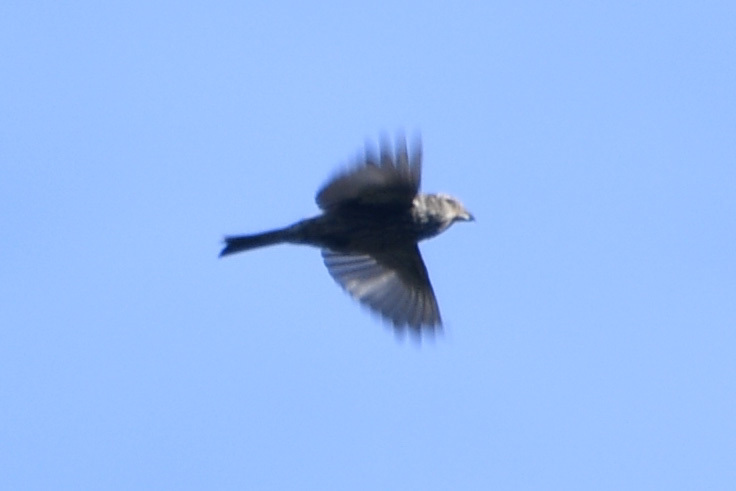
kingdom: Animalia
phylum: Chordata
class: Aves
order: Passeriformes
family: Fringillidae
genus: Loxia
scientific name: Loxia leucoptera
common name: Two-barred crossbill
